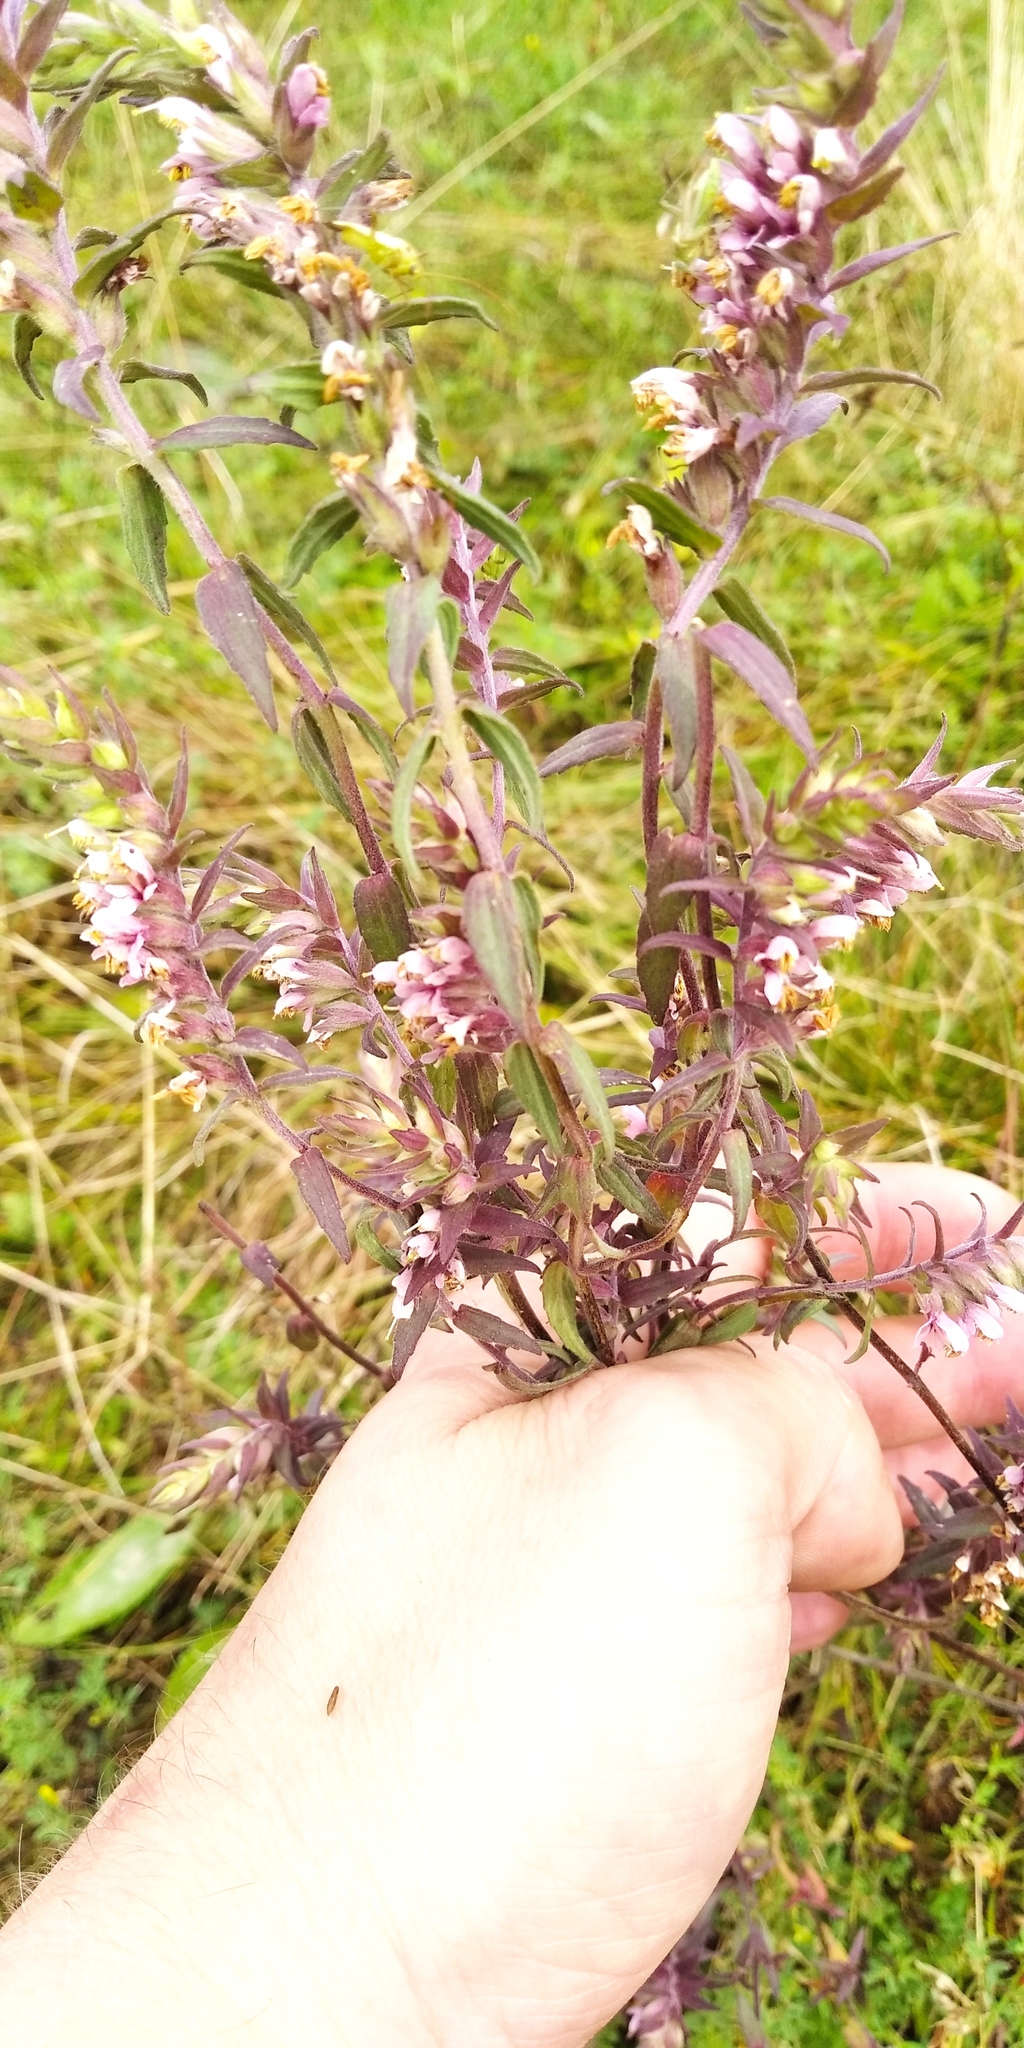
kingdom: Plantae
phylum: Tracheophyta
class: Magnoliopsida
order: Lamiales
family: Orobanchaceae
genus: Odontites
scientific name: Odontites vulgaris
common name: Broomrape
